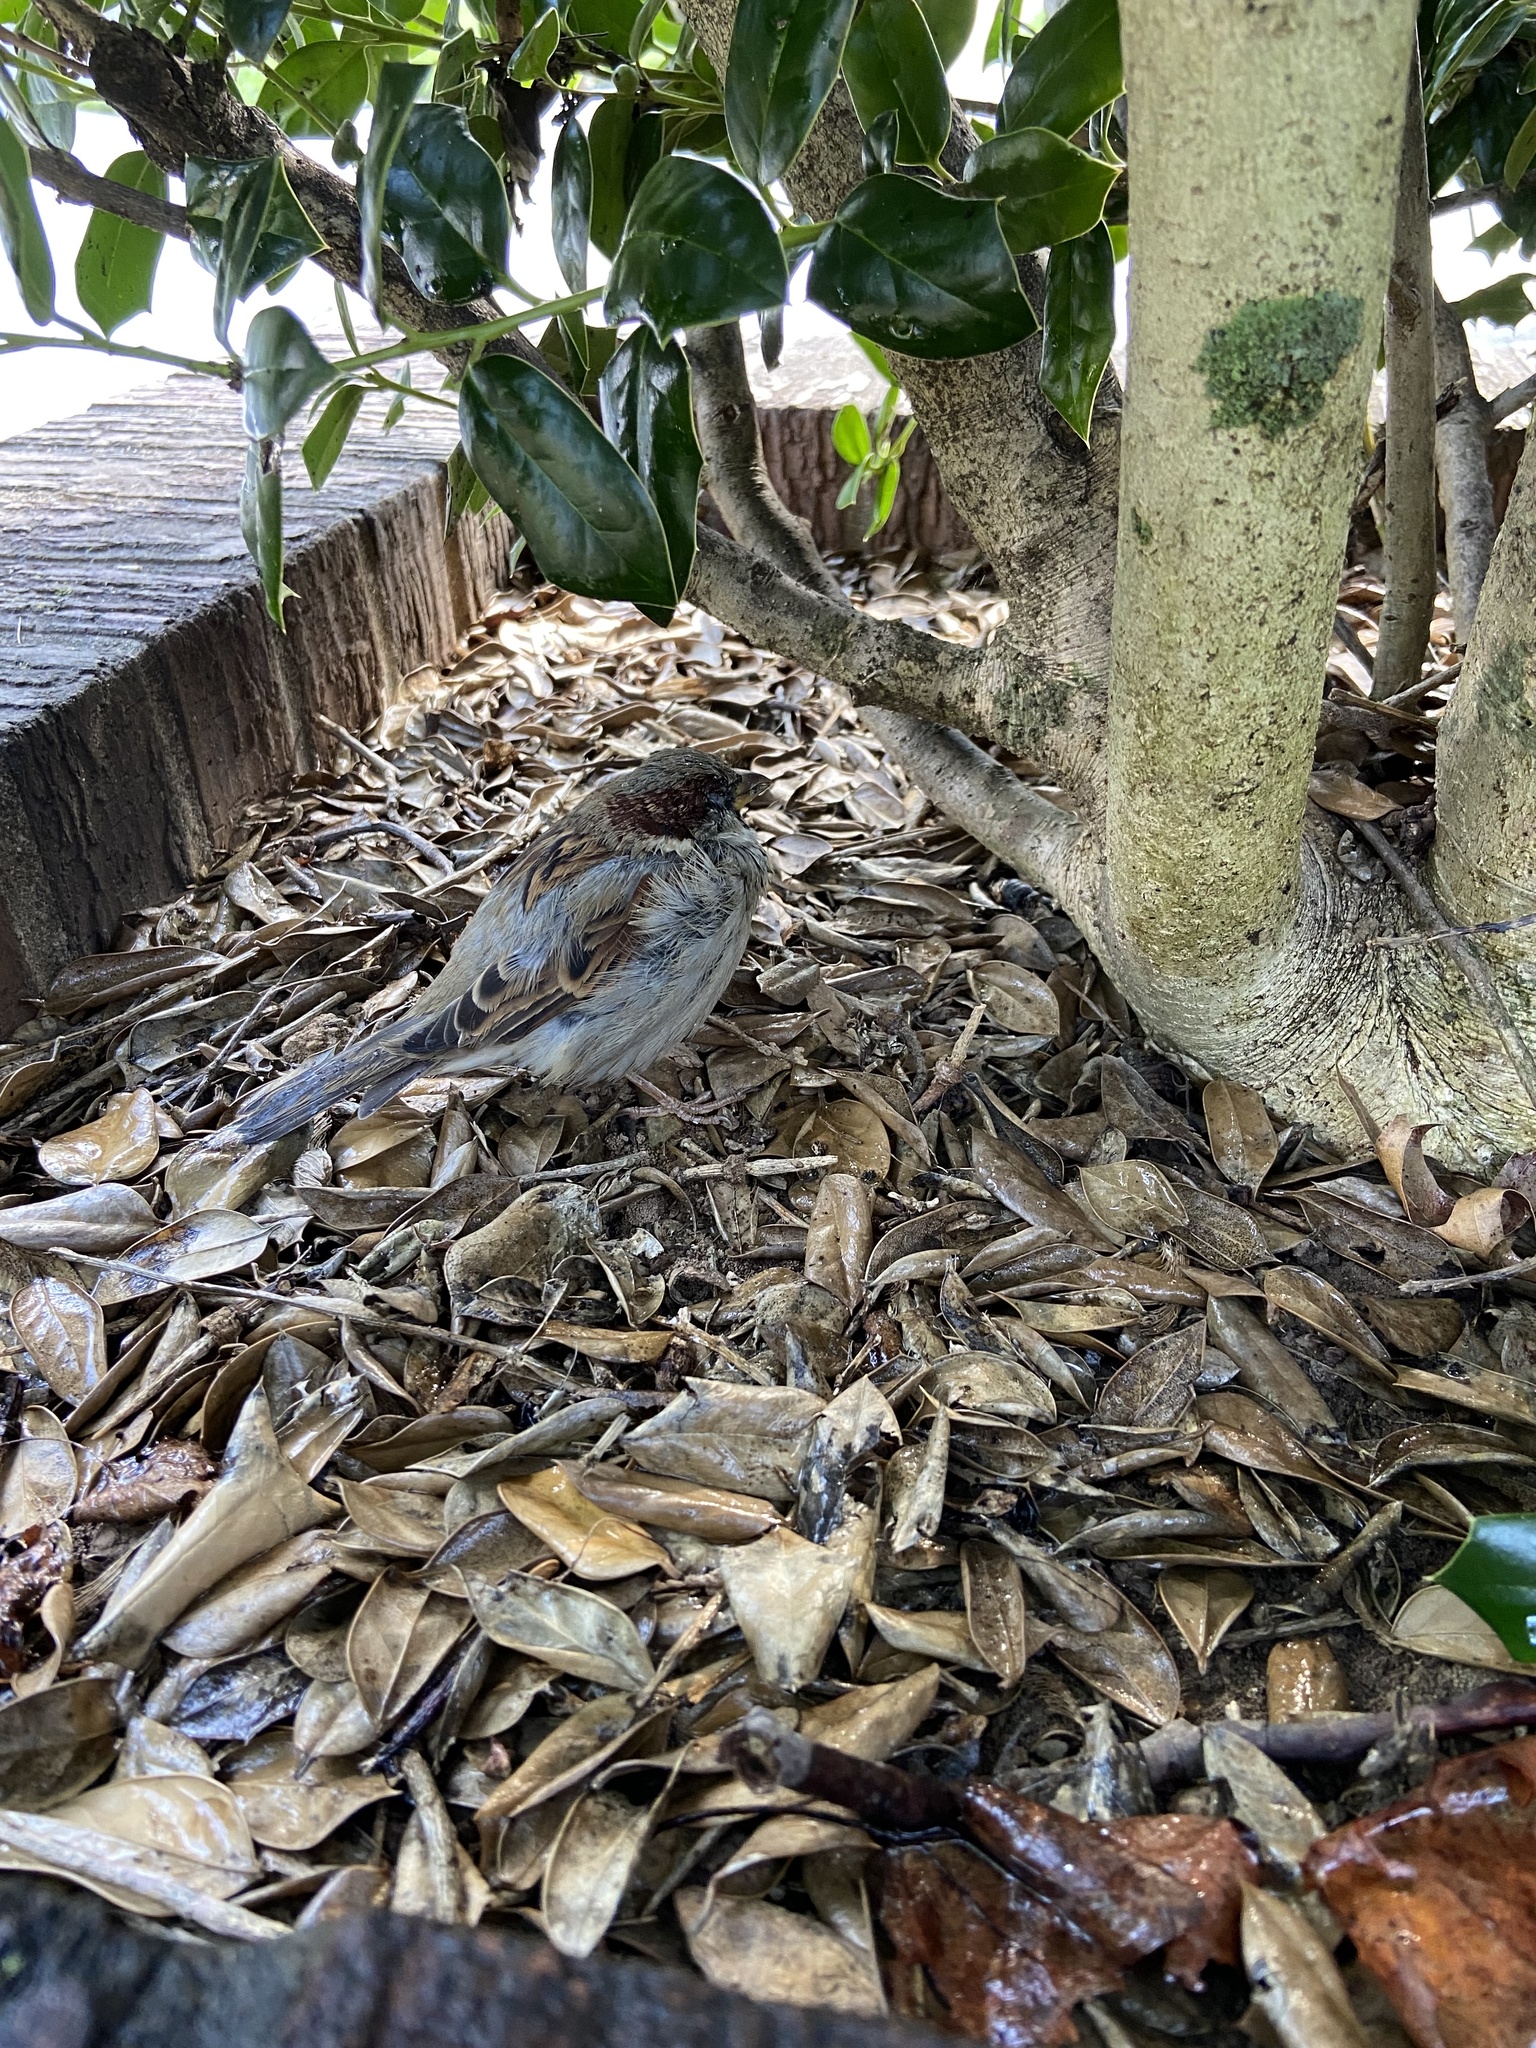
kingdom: Animalia
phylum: Chordata
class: Aves
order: Passeriformes
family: Passeridae
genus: Passer
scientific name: Passer domesticus
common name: House sparrow
